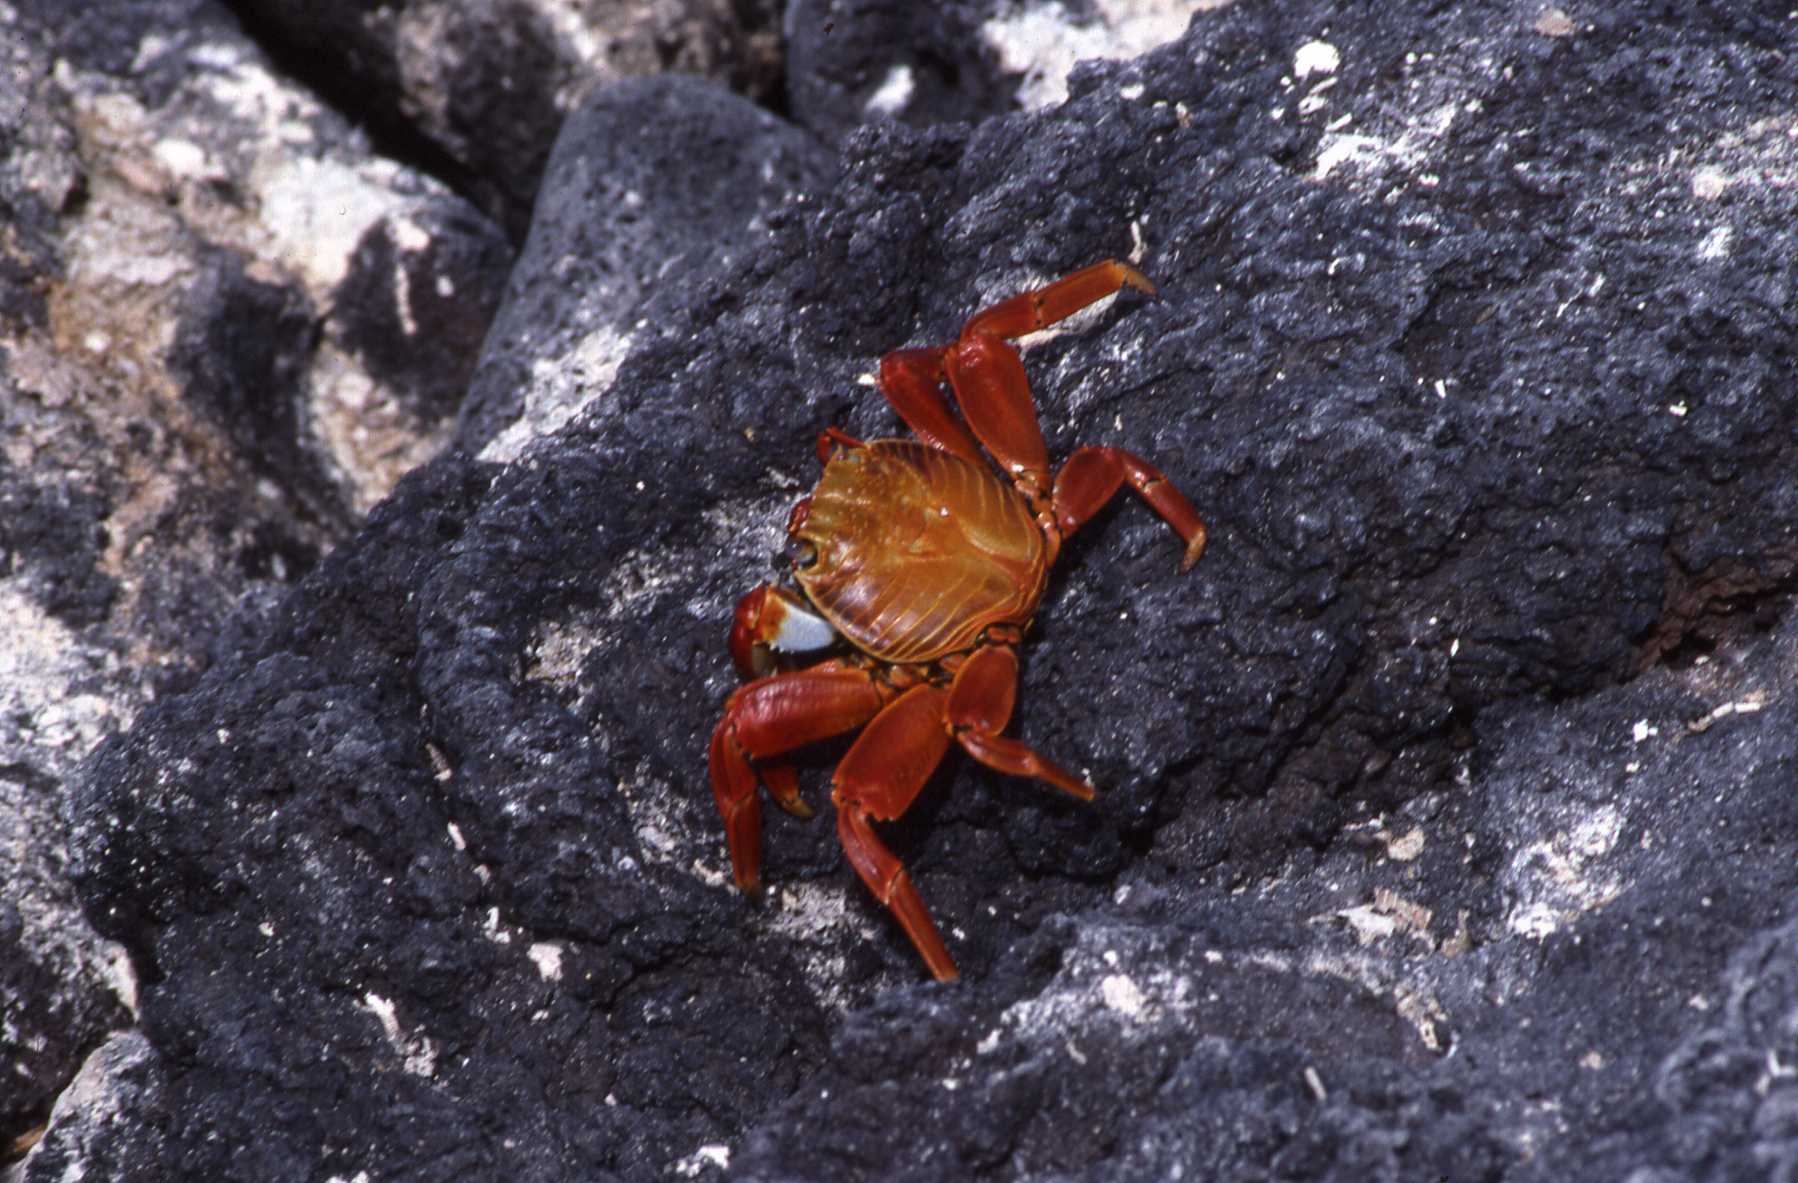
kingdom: Animalia
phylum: Arthropoda
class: Malacostraca
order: Decapoda
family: Grapsidae
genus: Grapsus
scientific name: Grapsus grapsus
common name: Sally lightfoot
